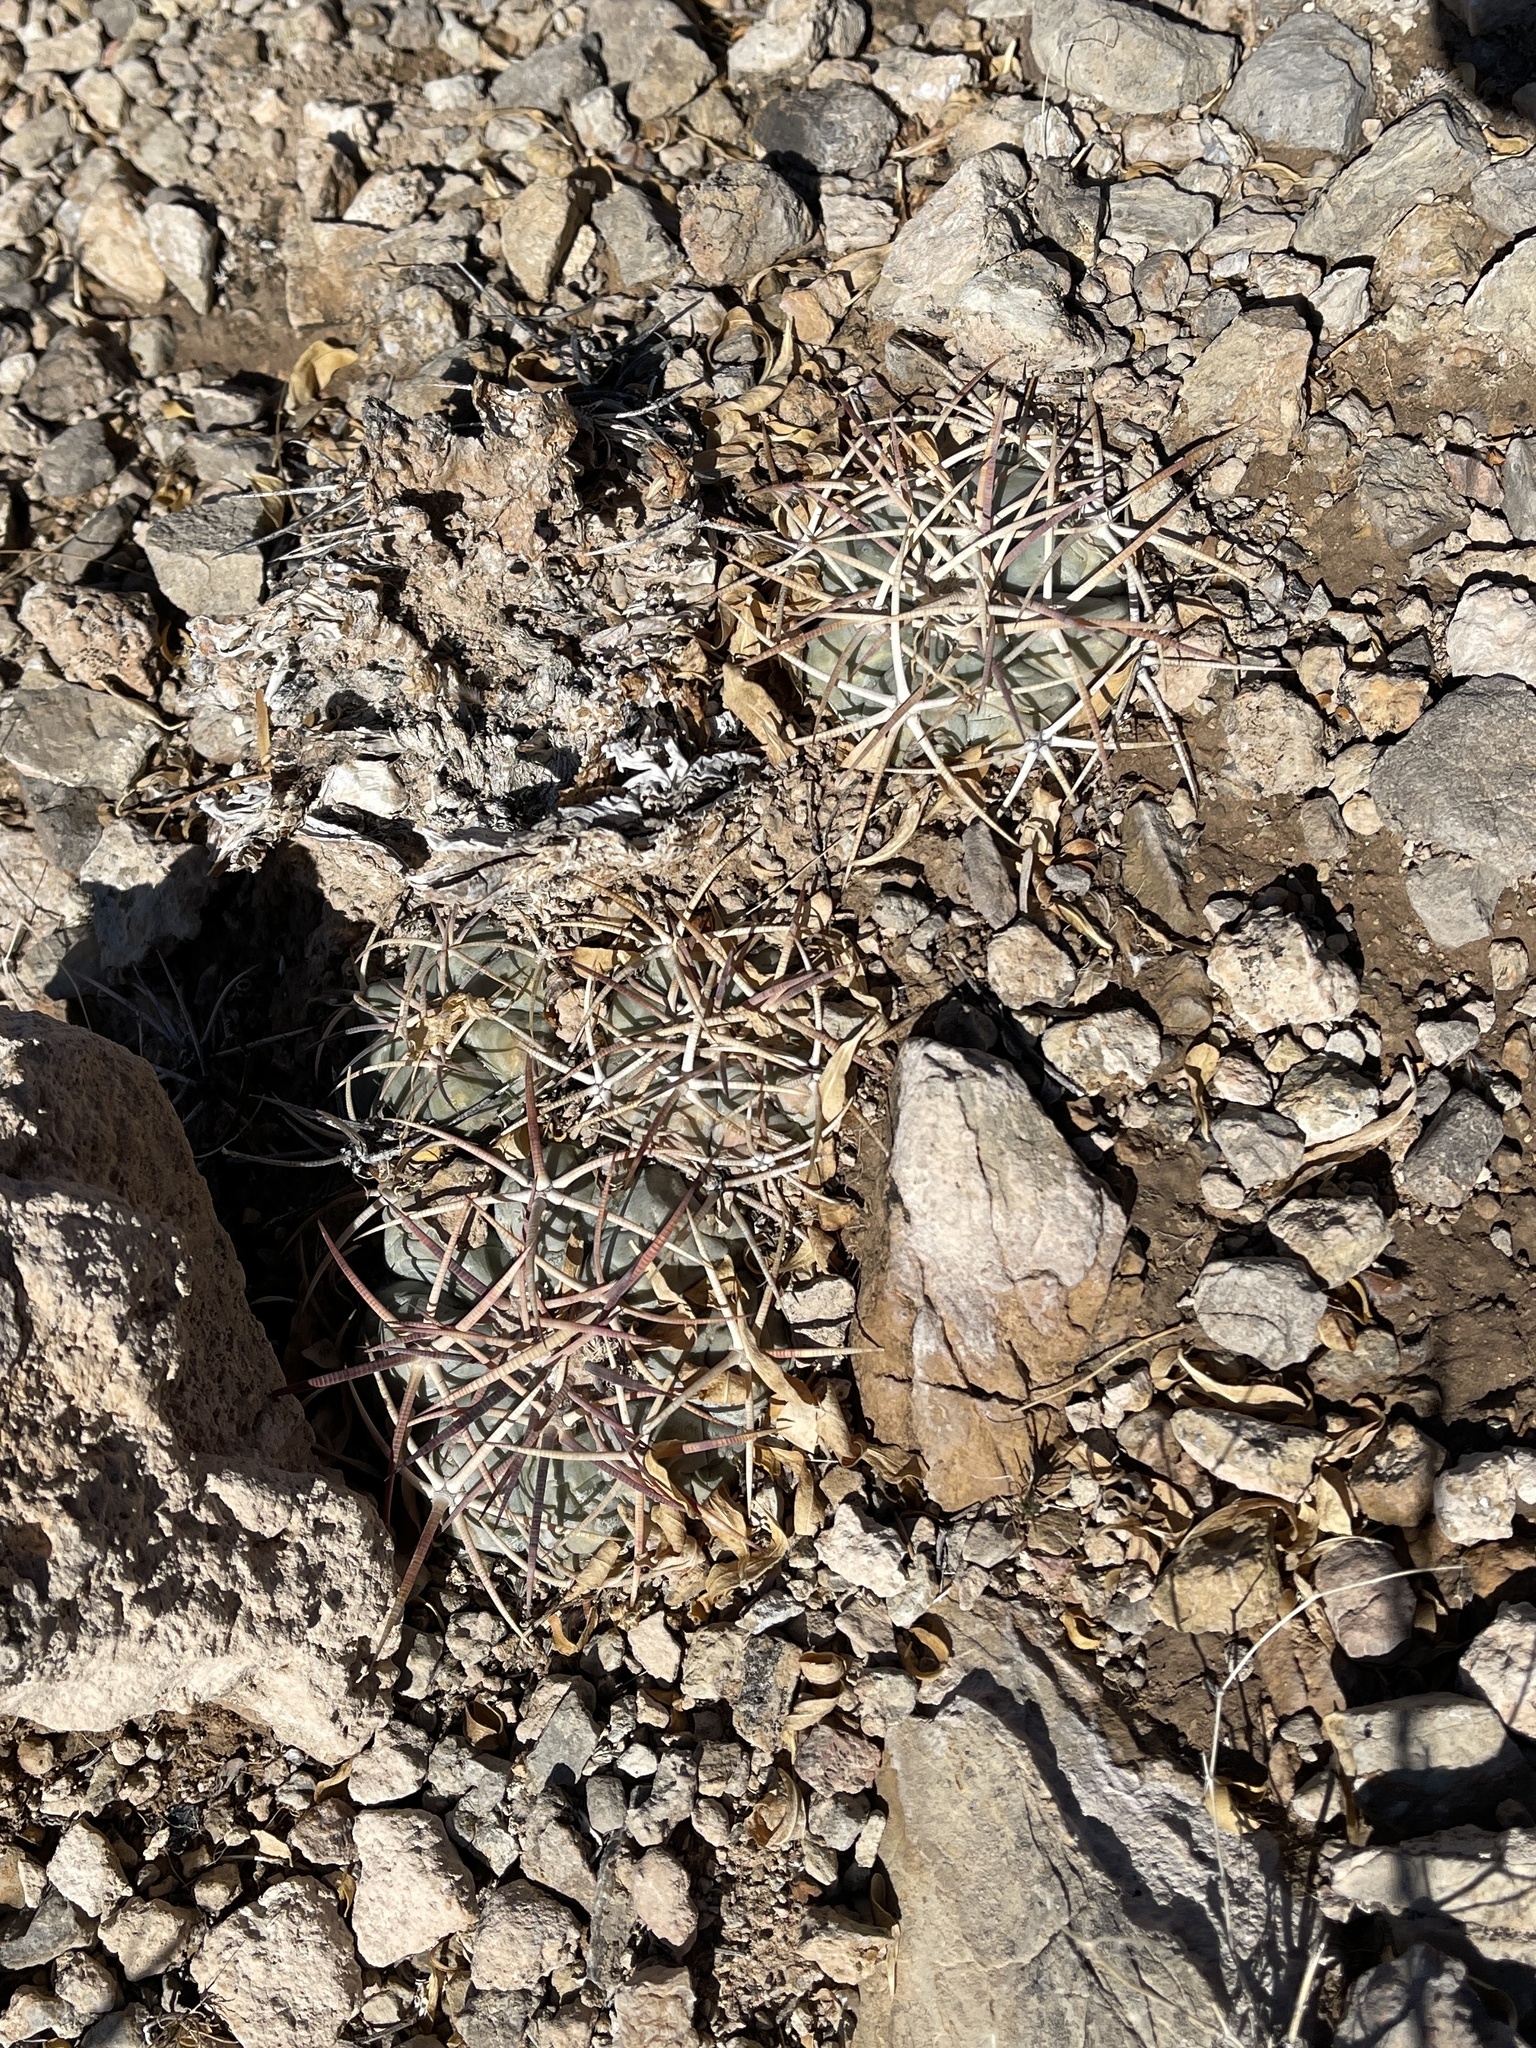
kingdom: Plantae
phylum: Tracheophyta
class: Magnoliopsida
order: Caryophyllales
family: Cactaceae
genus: Echinocactus
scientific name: Echinocactus horizonthalonius
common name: Devilshead
